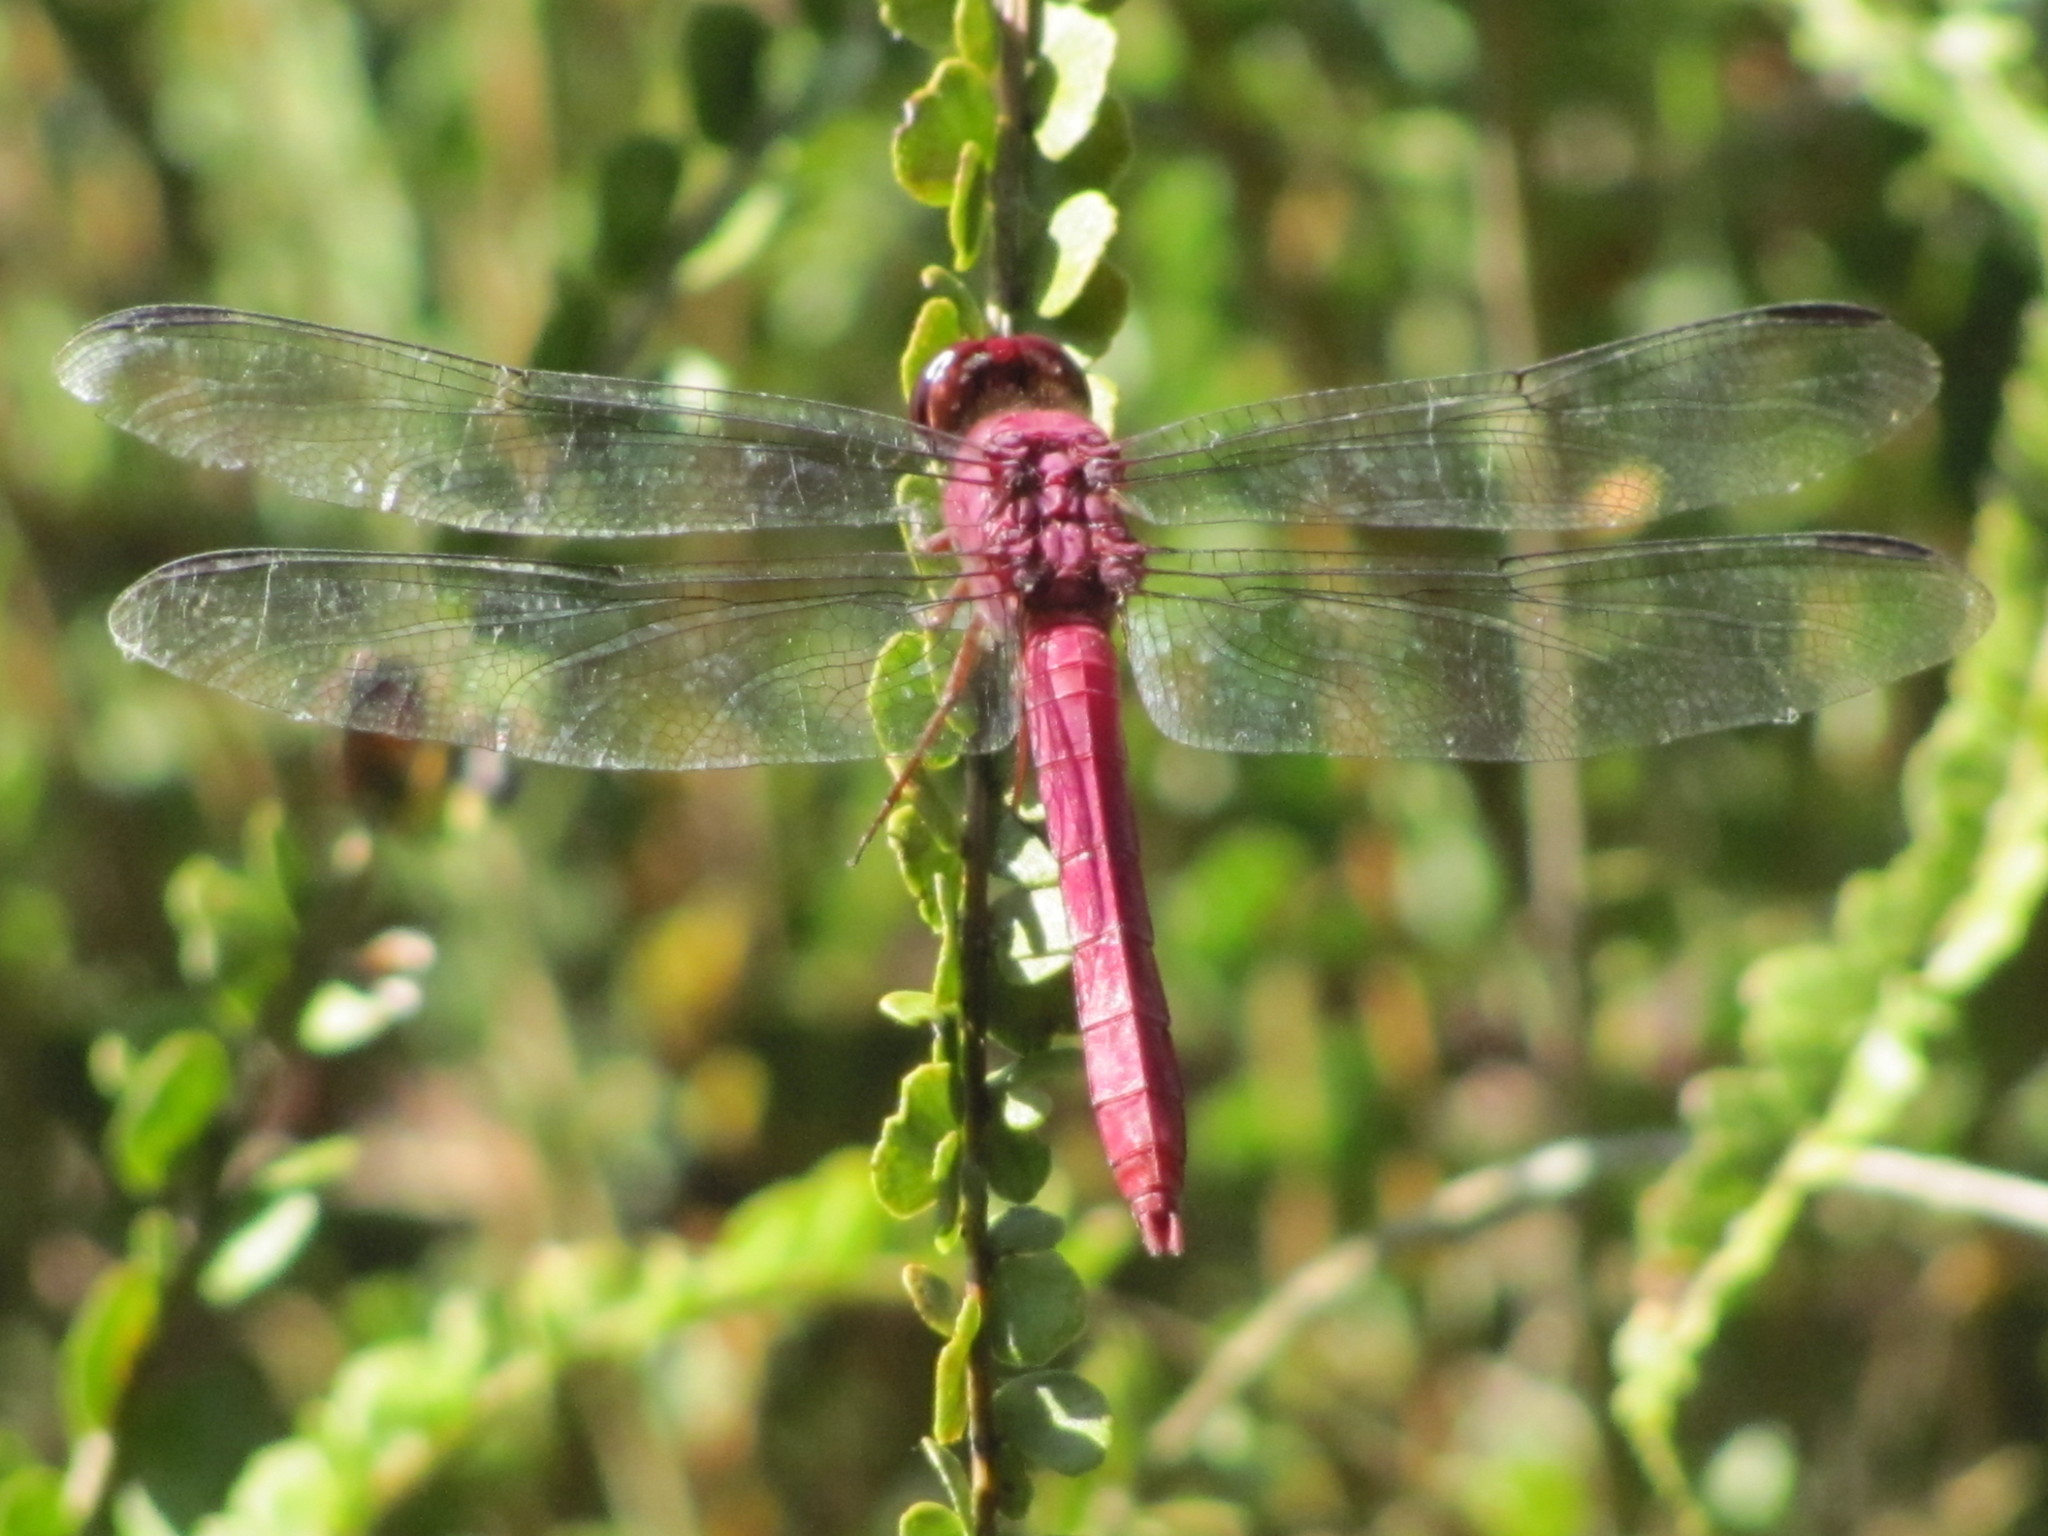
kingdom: Animalia
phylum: Arthropoda
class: Insecta
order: Odonata
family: Libellulidae
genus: Orthemis
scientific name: Orthemis discolor
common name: Carmine skimmer
